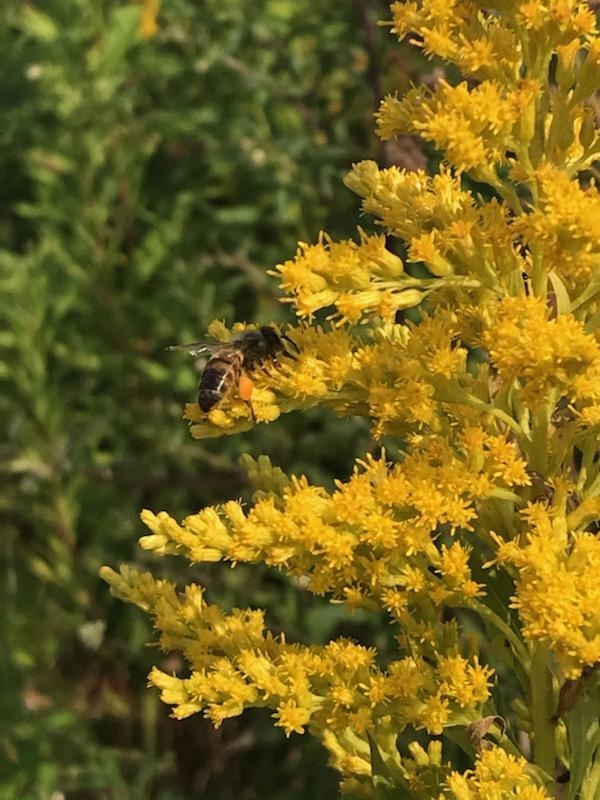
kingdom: Animalia
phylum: Arthropoda
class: Insecta
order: Hymenoptera
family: Apidae
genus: Apis
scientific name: Apis mellifera
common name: Honey bee
